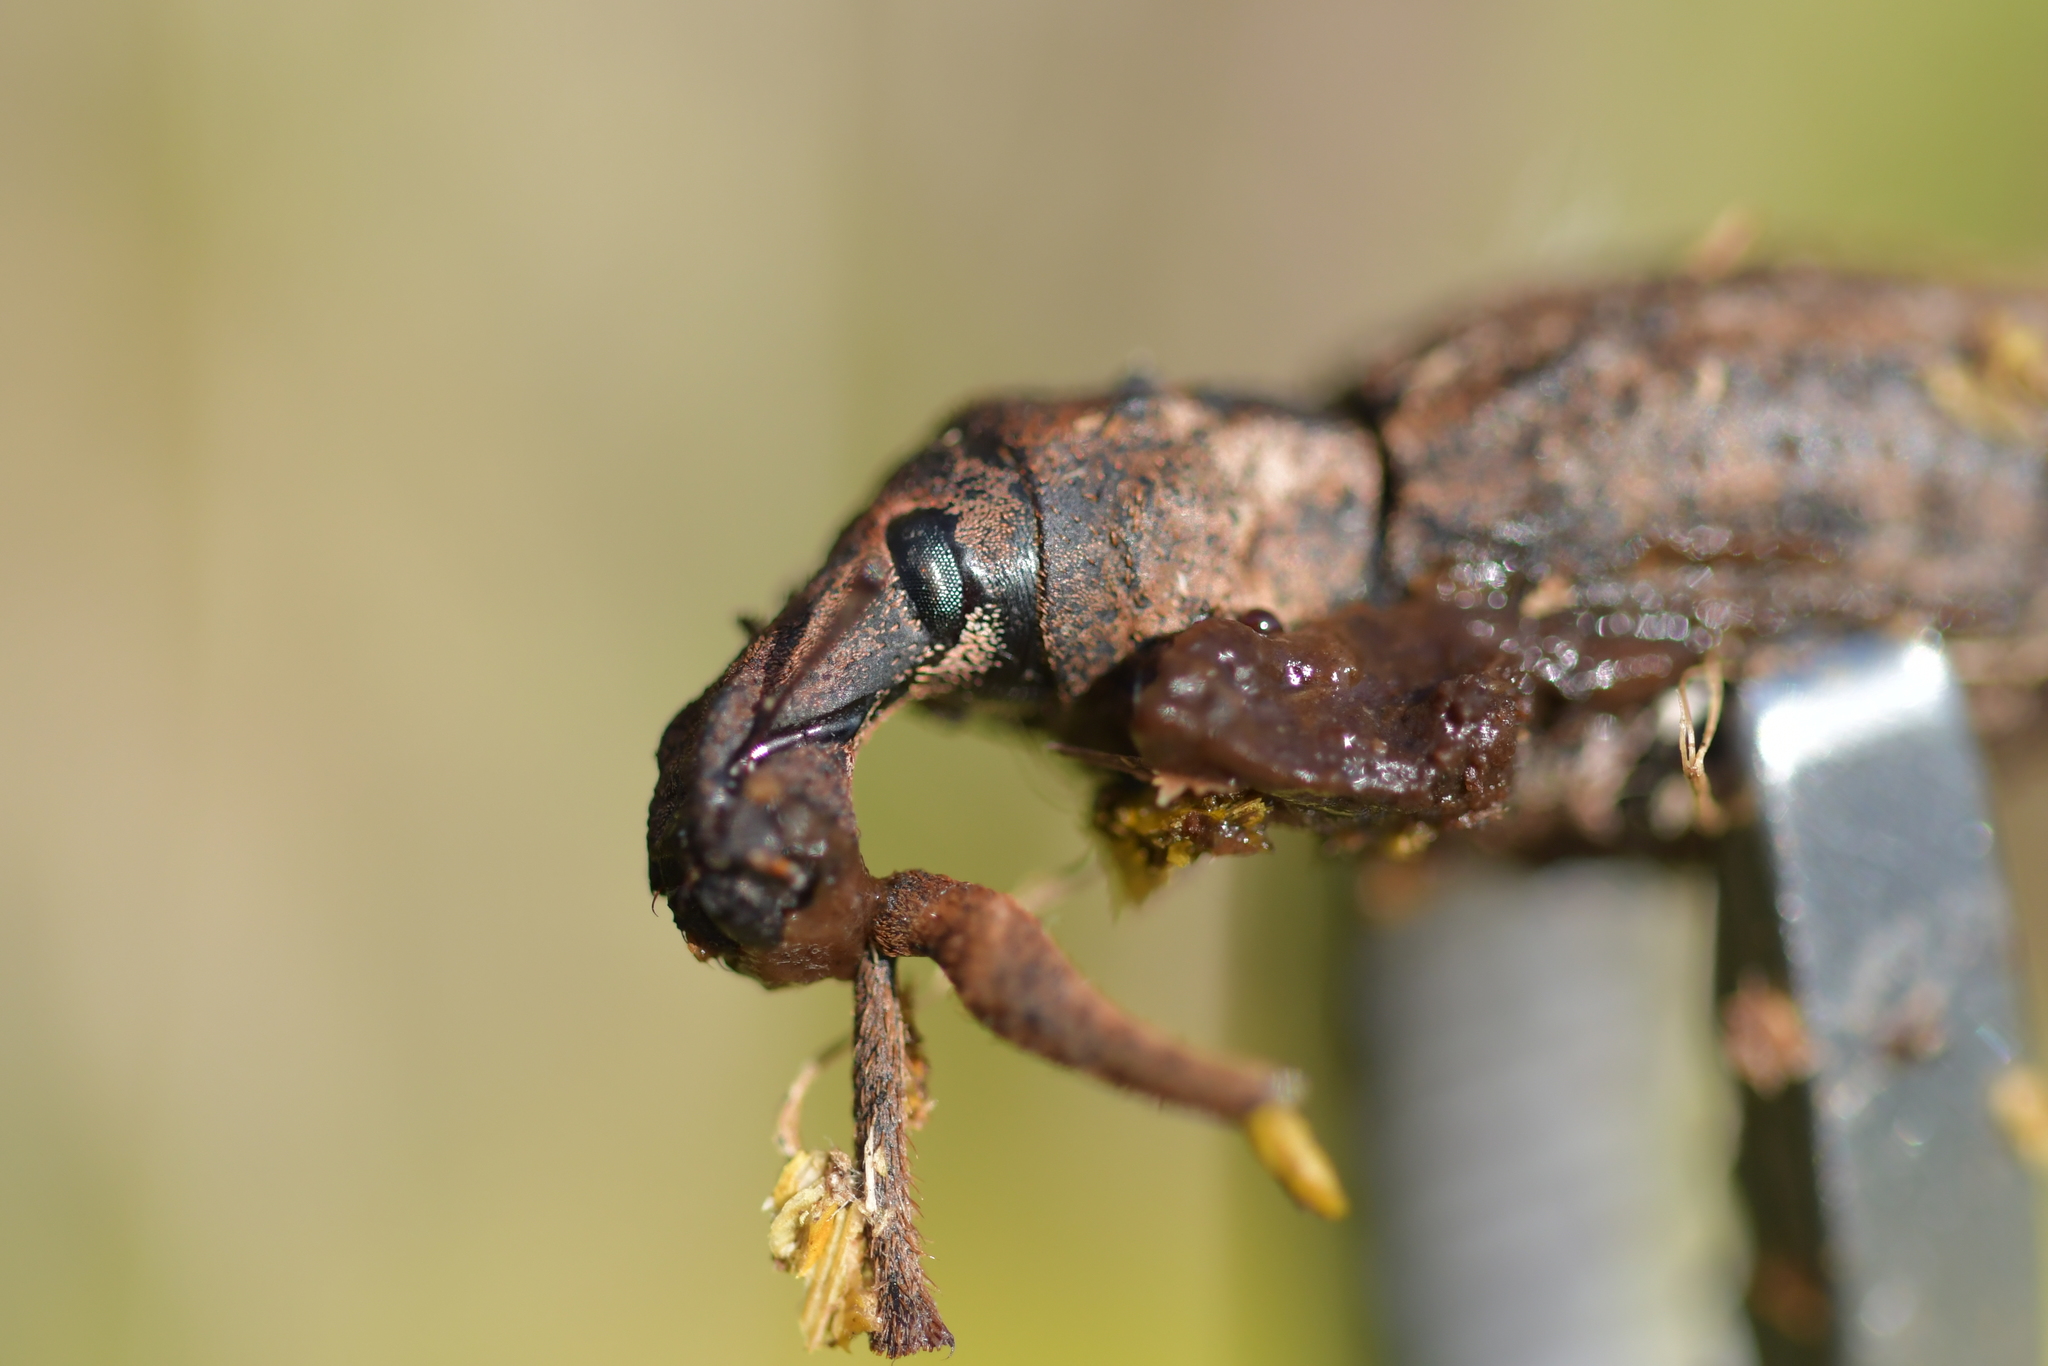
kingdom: Animalia
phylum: Arthropoda
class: Insecta
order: Coleoptera
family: Curculionidae
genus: Anagotus
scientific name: Anagotus fairburni
